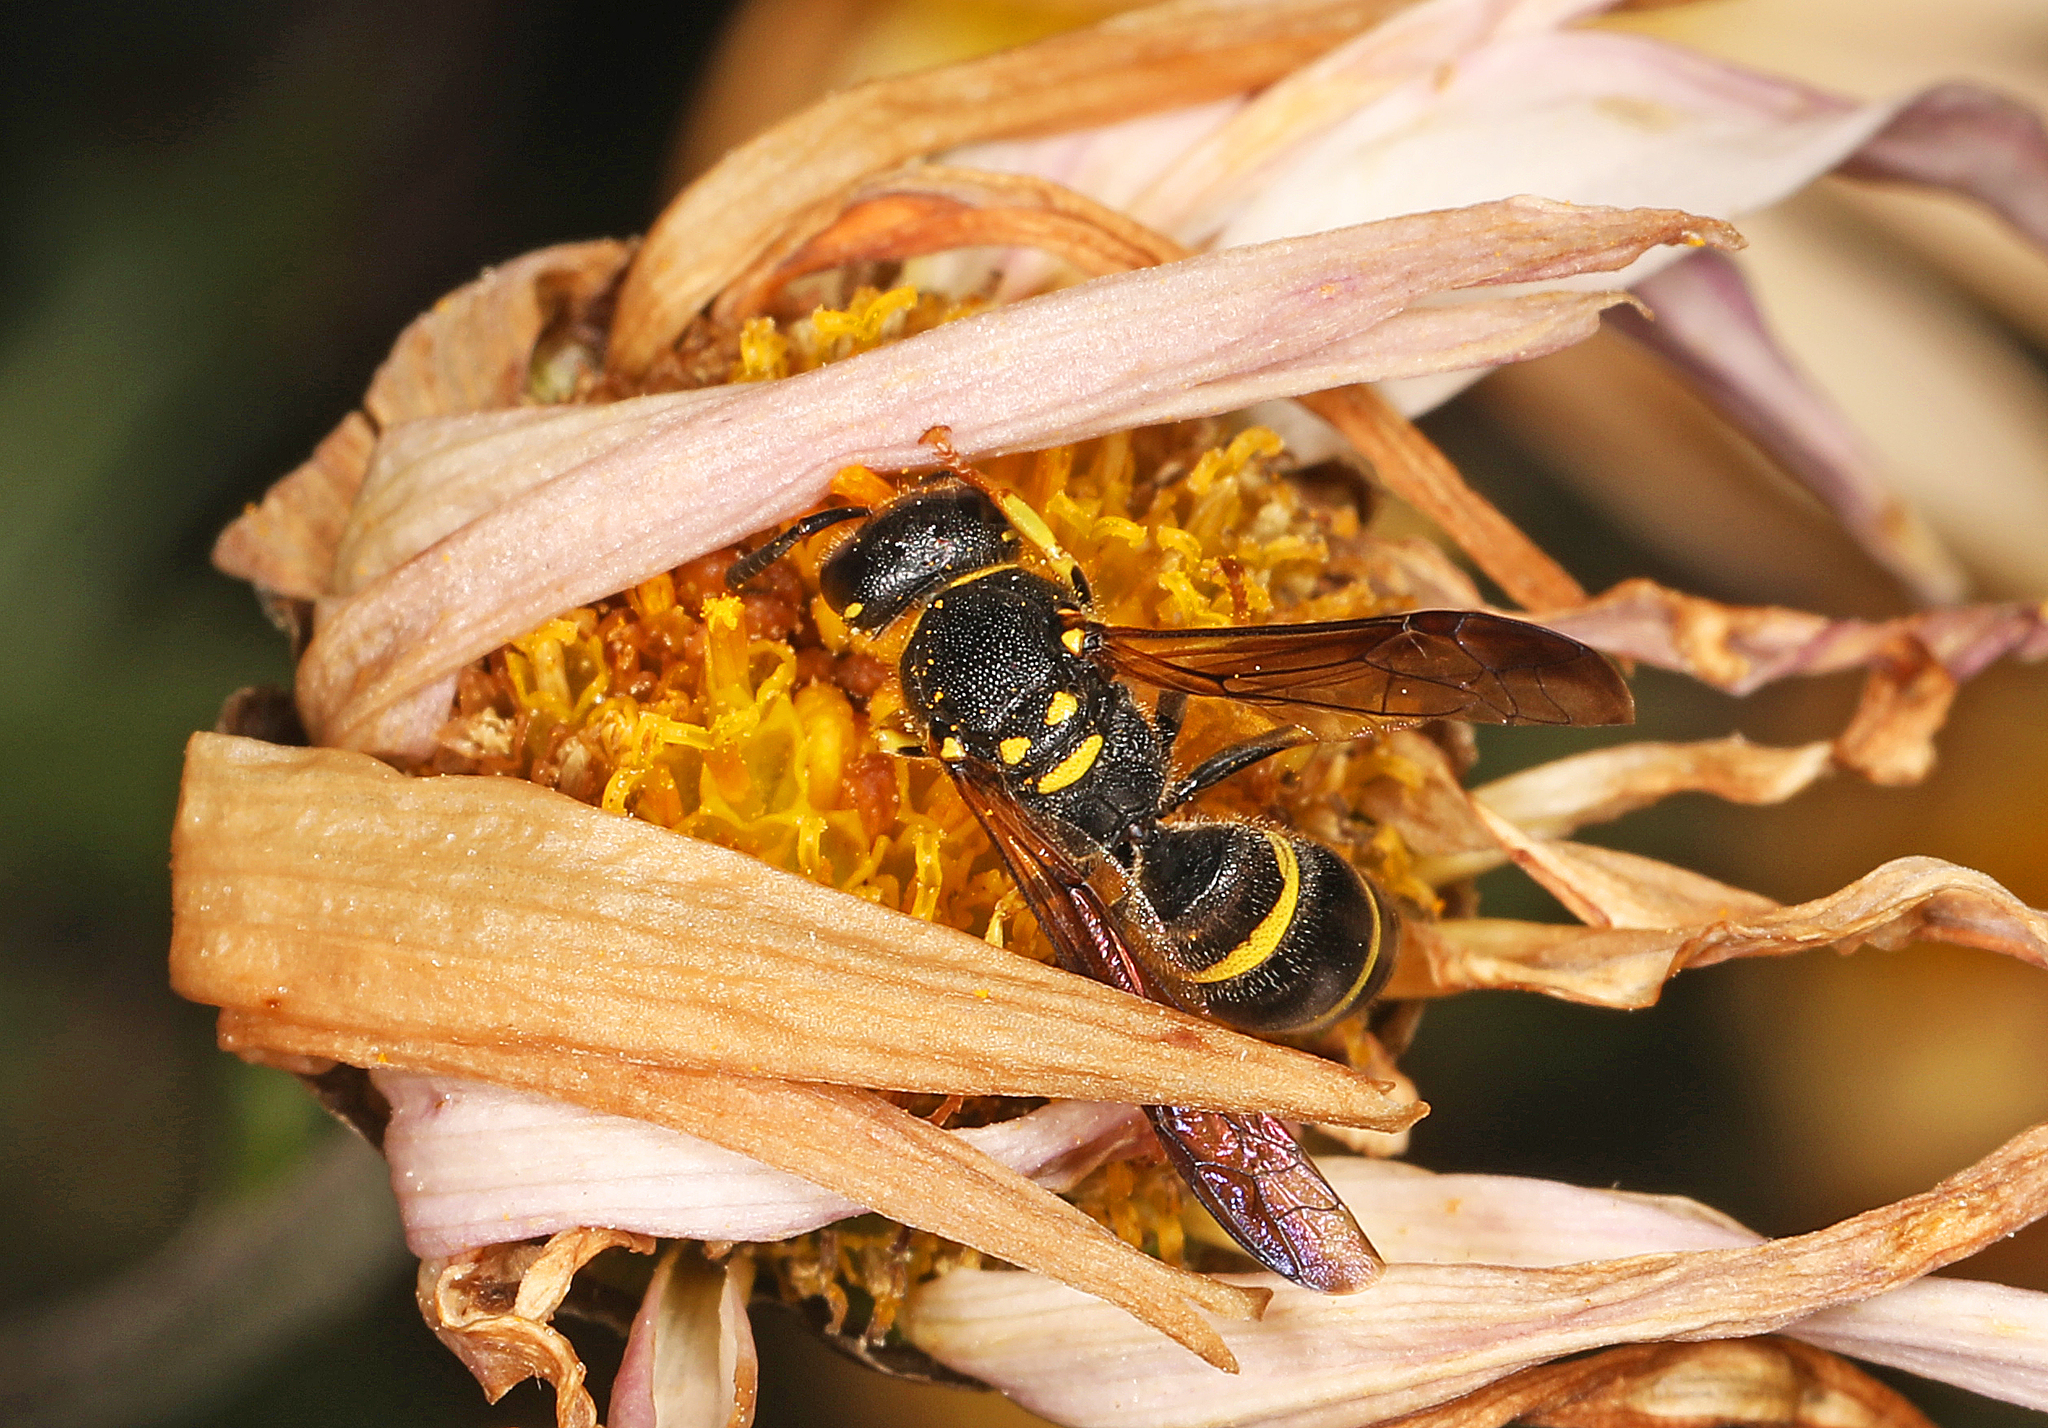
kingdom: Animalia
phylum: Arthropoda
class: Insecta
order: Hymenoptera
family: Vespidae
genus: Ancistrocerus
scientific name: Ancistrocerus adiabatus
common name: Bramble mason wasp
